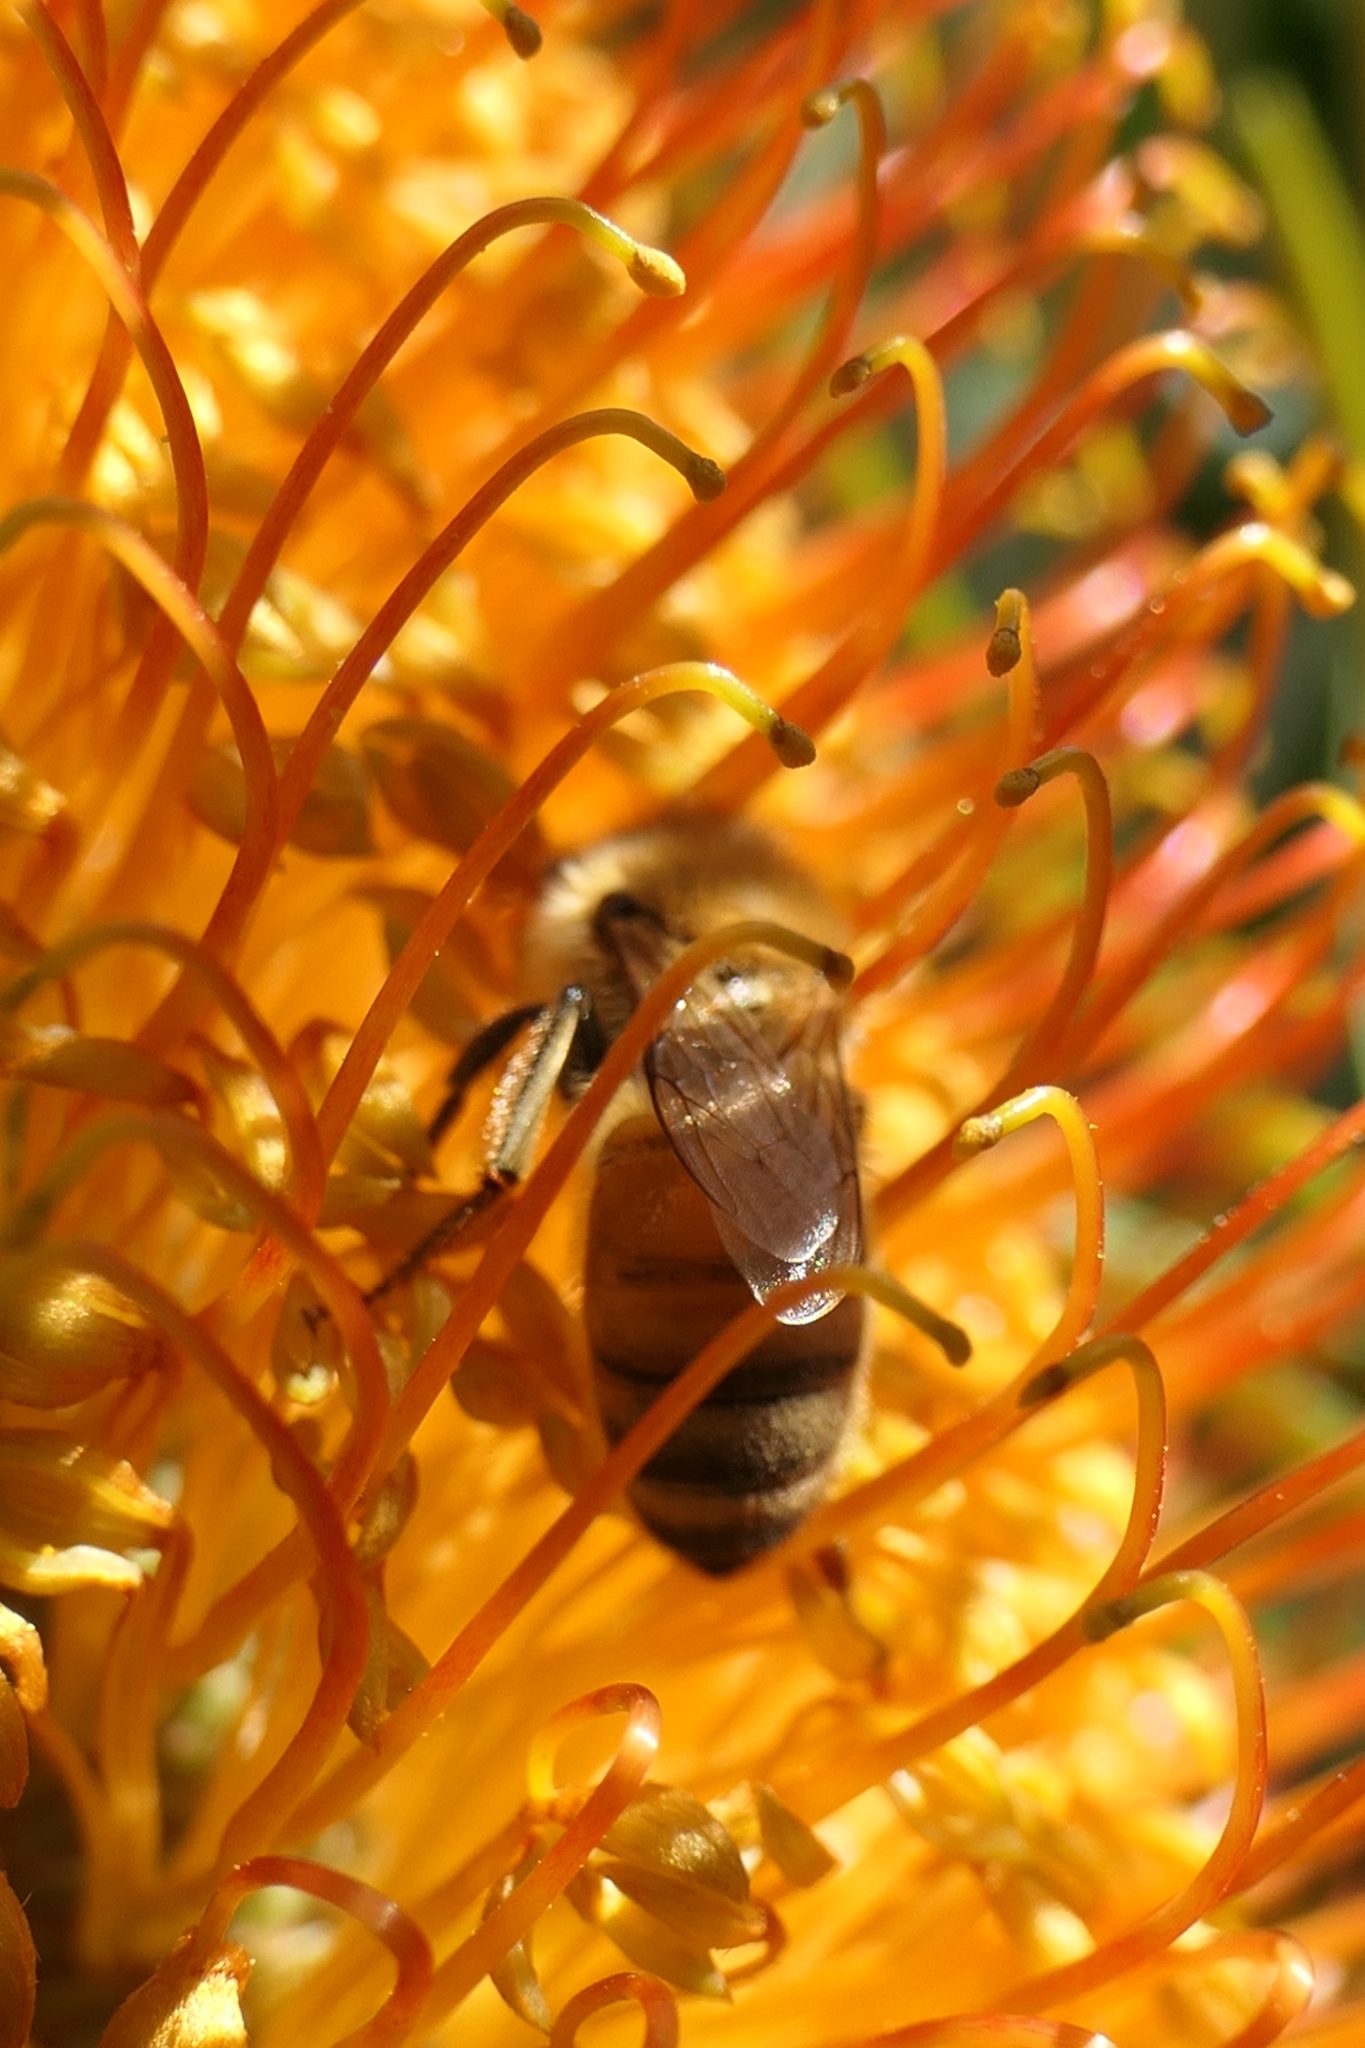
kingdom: Animalia
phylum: Arthropoda
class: Insecta
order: Hymenoptera
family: Apidae
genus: Apis
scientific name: Apis mellifera
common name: Honey bee
